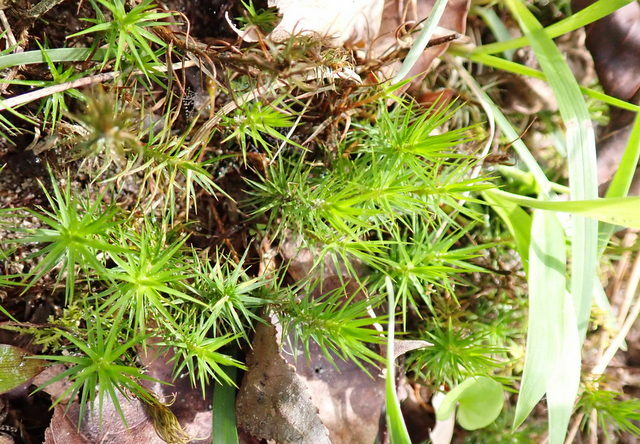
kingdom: Plantae
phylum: Bryophyta
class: Polytrichopsida
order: Polytrichales
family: Polytrichaceae
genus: Polytrichum
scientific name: Polytrichum commune
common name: Common haircap
